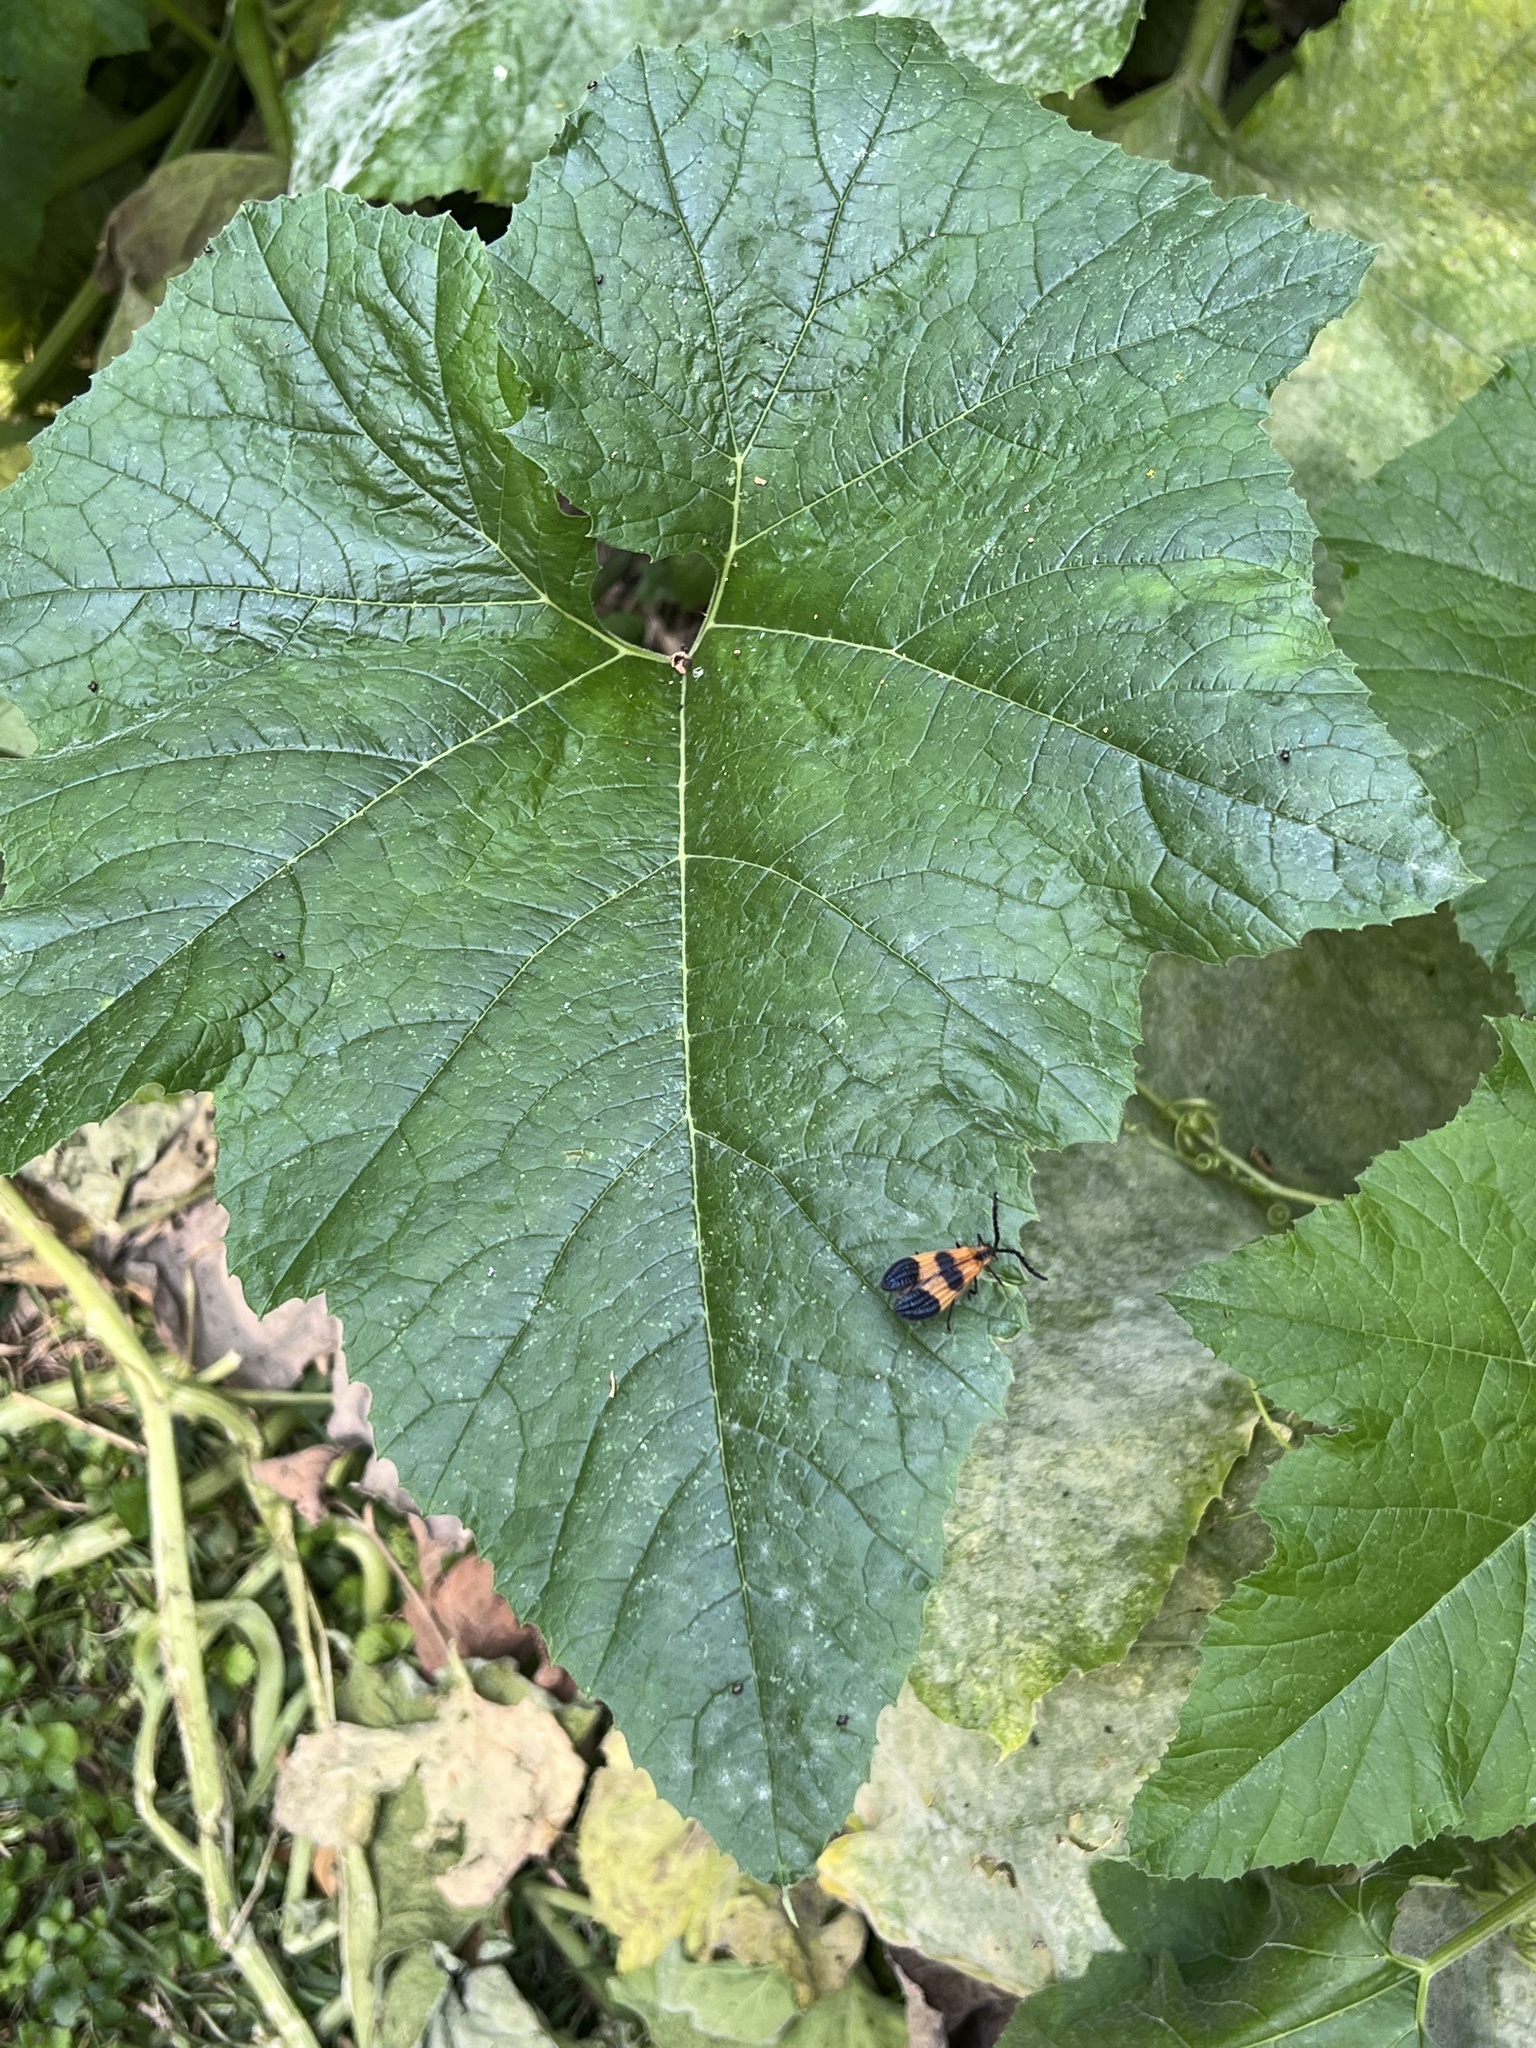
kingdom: Animalia
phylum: Arthropoda
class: Insecta
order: Coleoptera
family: Lycidae
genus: Calopteron
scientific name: Calopteron terminale
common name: End band net-winged beetle
